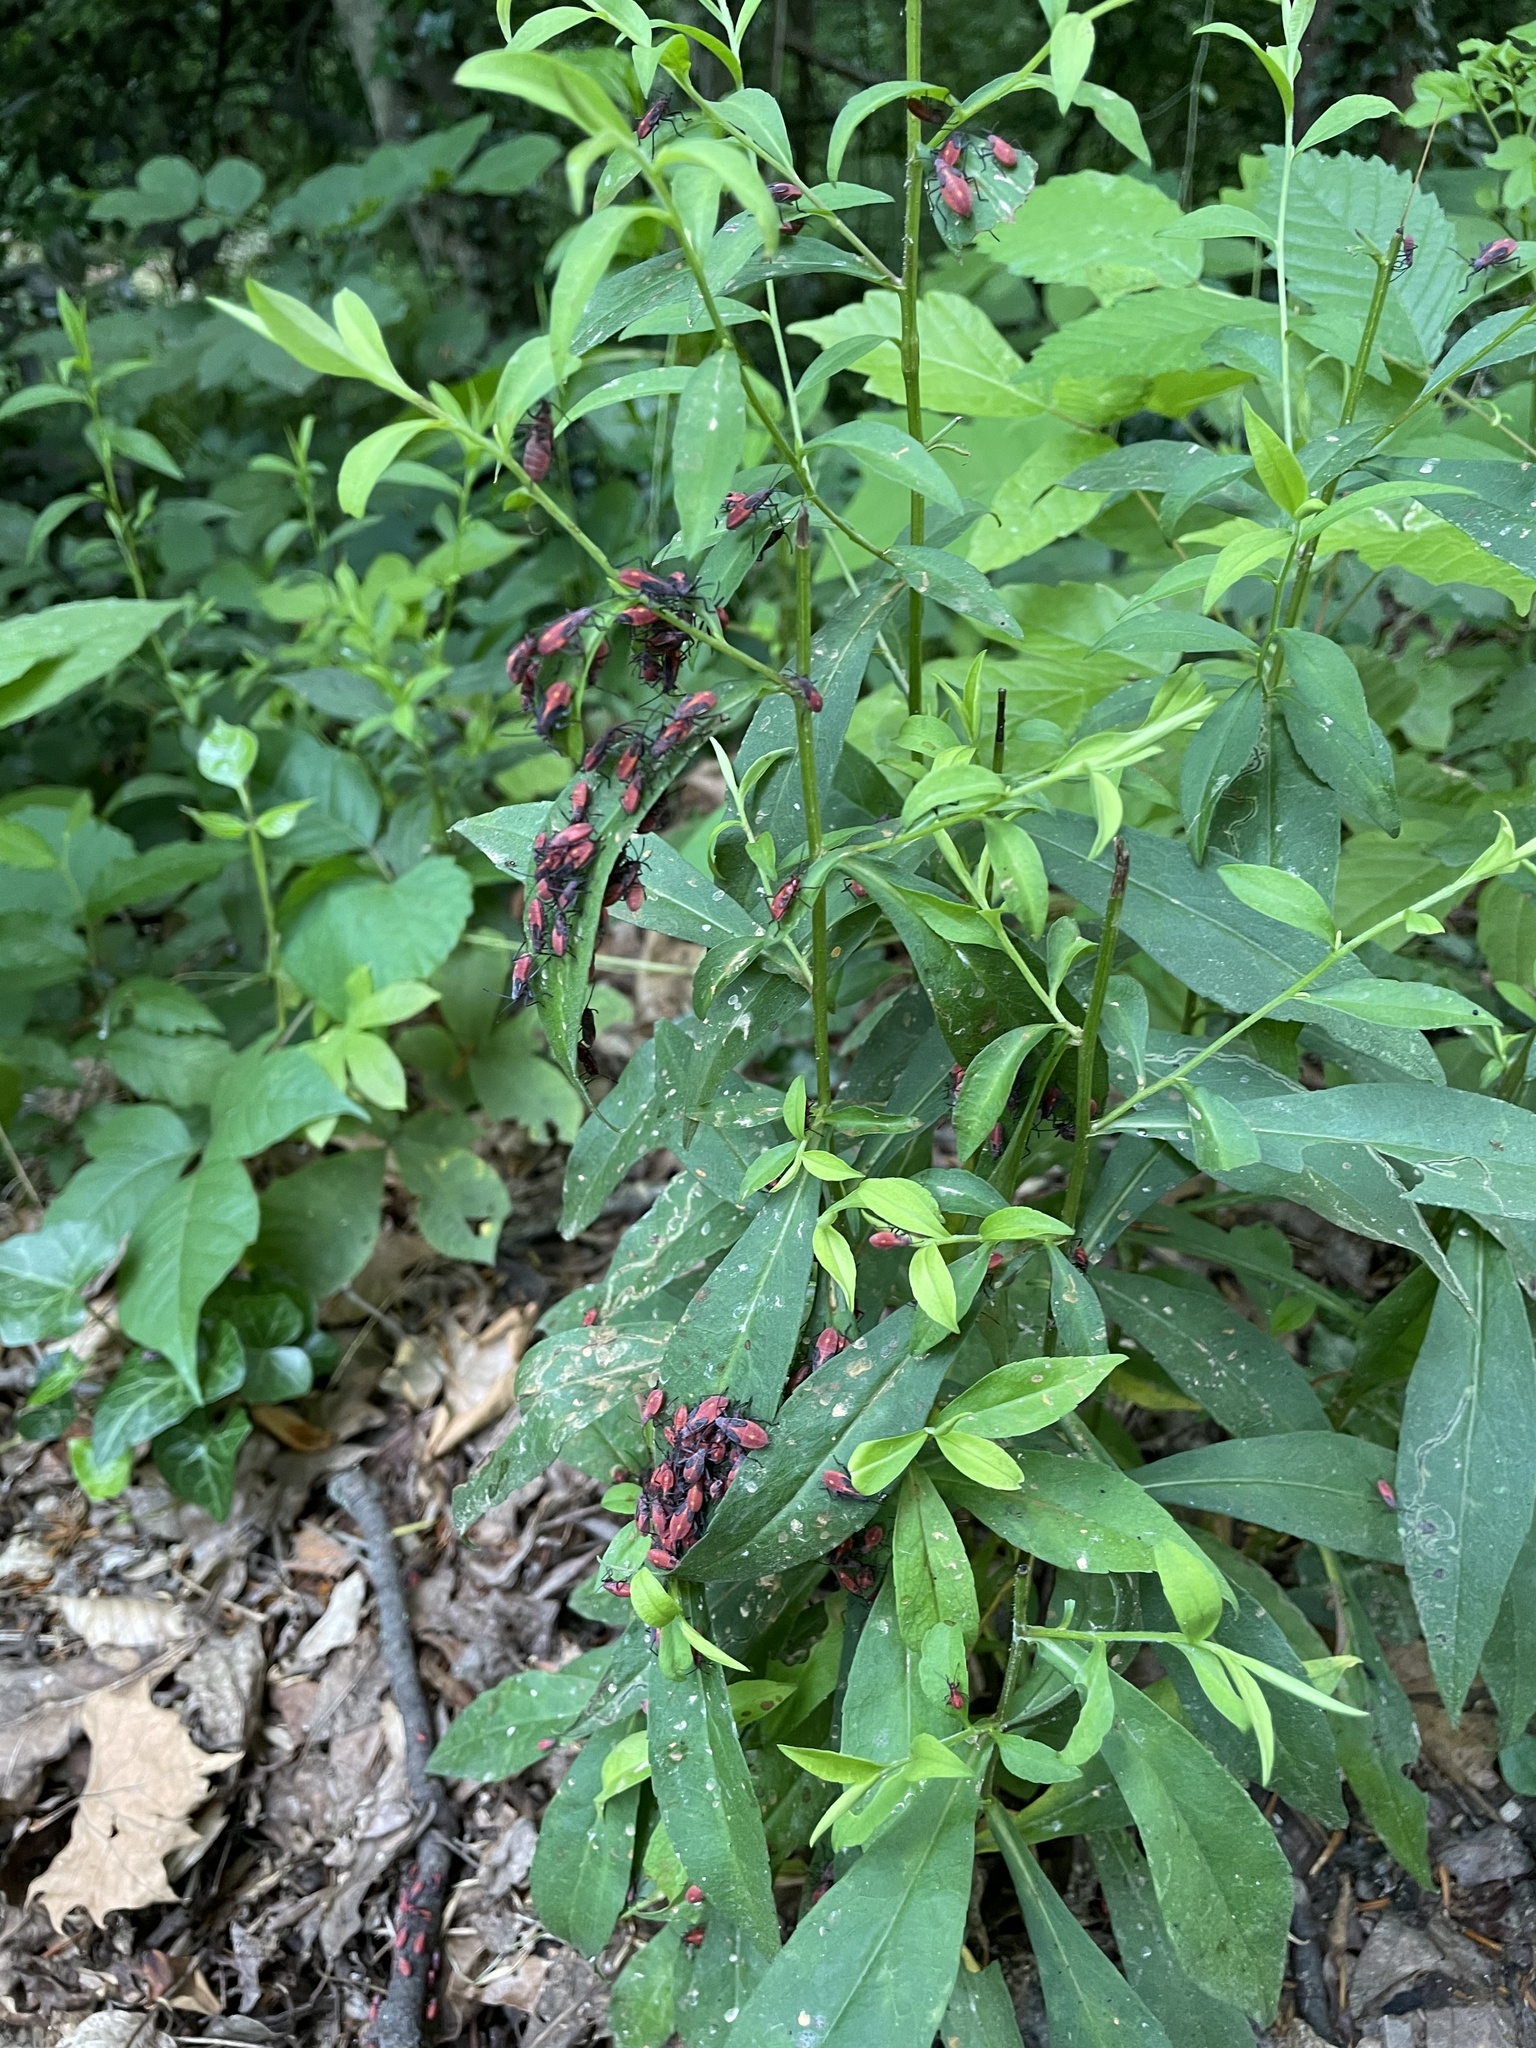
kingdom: Animalia
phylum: Arthropoda
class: Insecta
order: Hemiptera
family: Rhopalidae
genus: Boisea
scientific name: Boisea trivittata
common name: Boxelder bug
